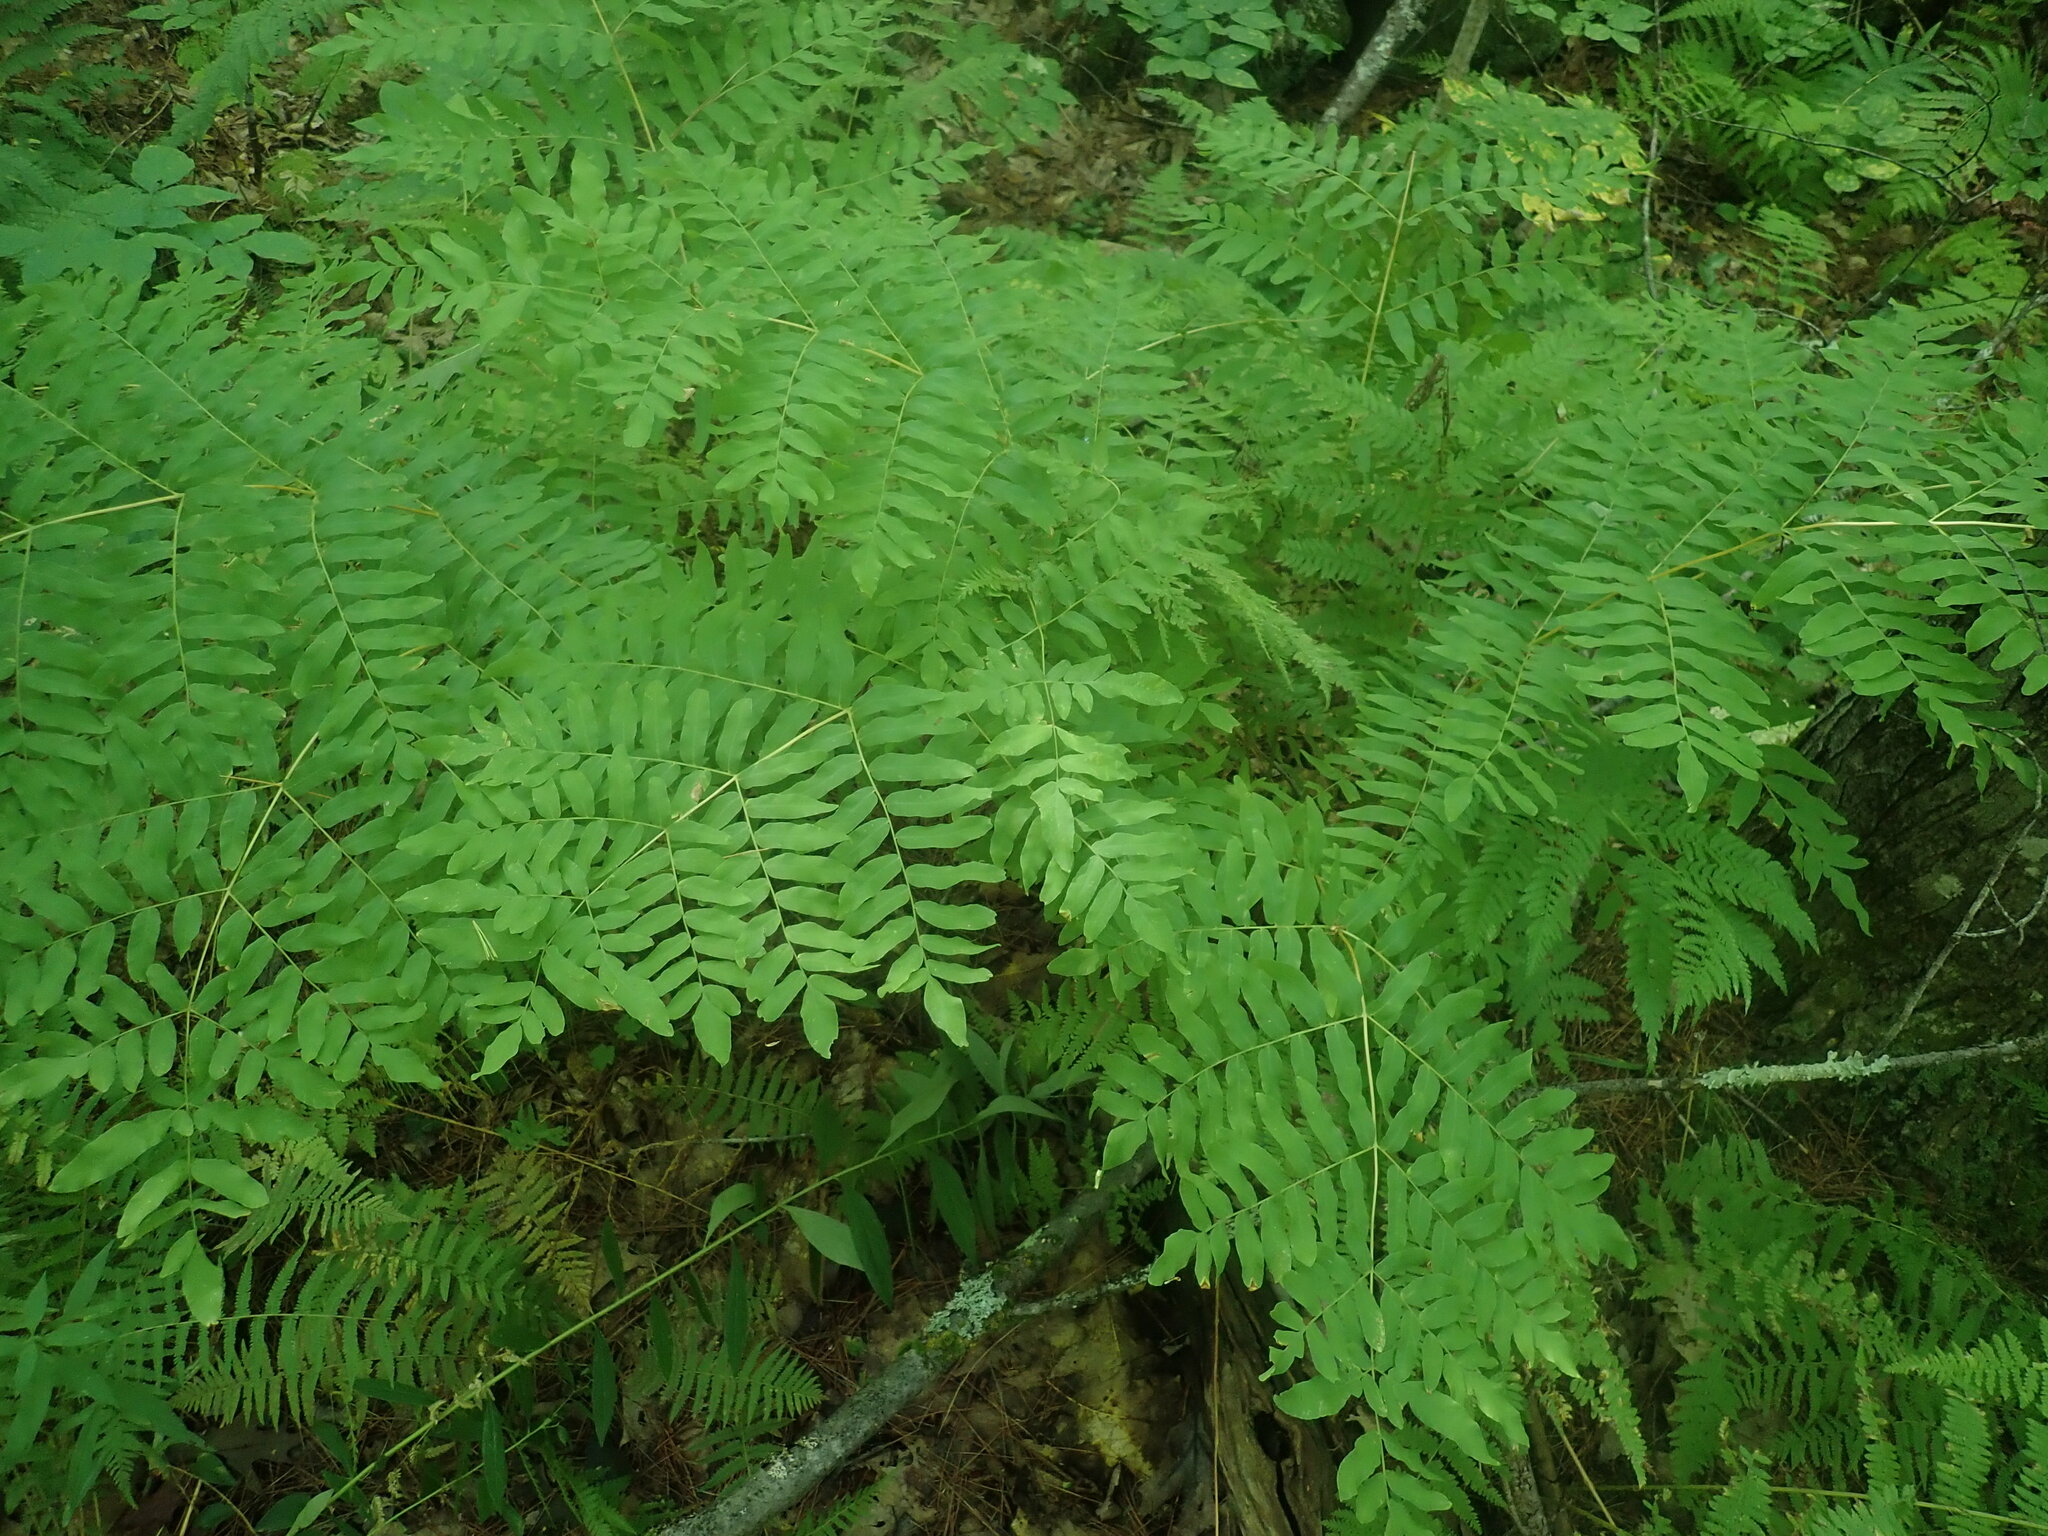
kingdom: Plantae
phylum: Tracheophyta
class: Polypodiopsida
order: Osmundales
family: Osmundaceae
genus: Osmunda
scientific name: Osmunda spectabilis
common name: American royal fern
